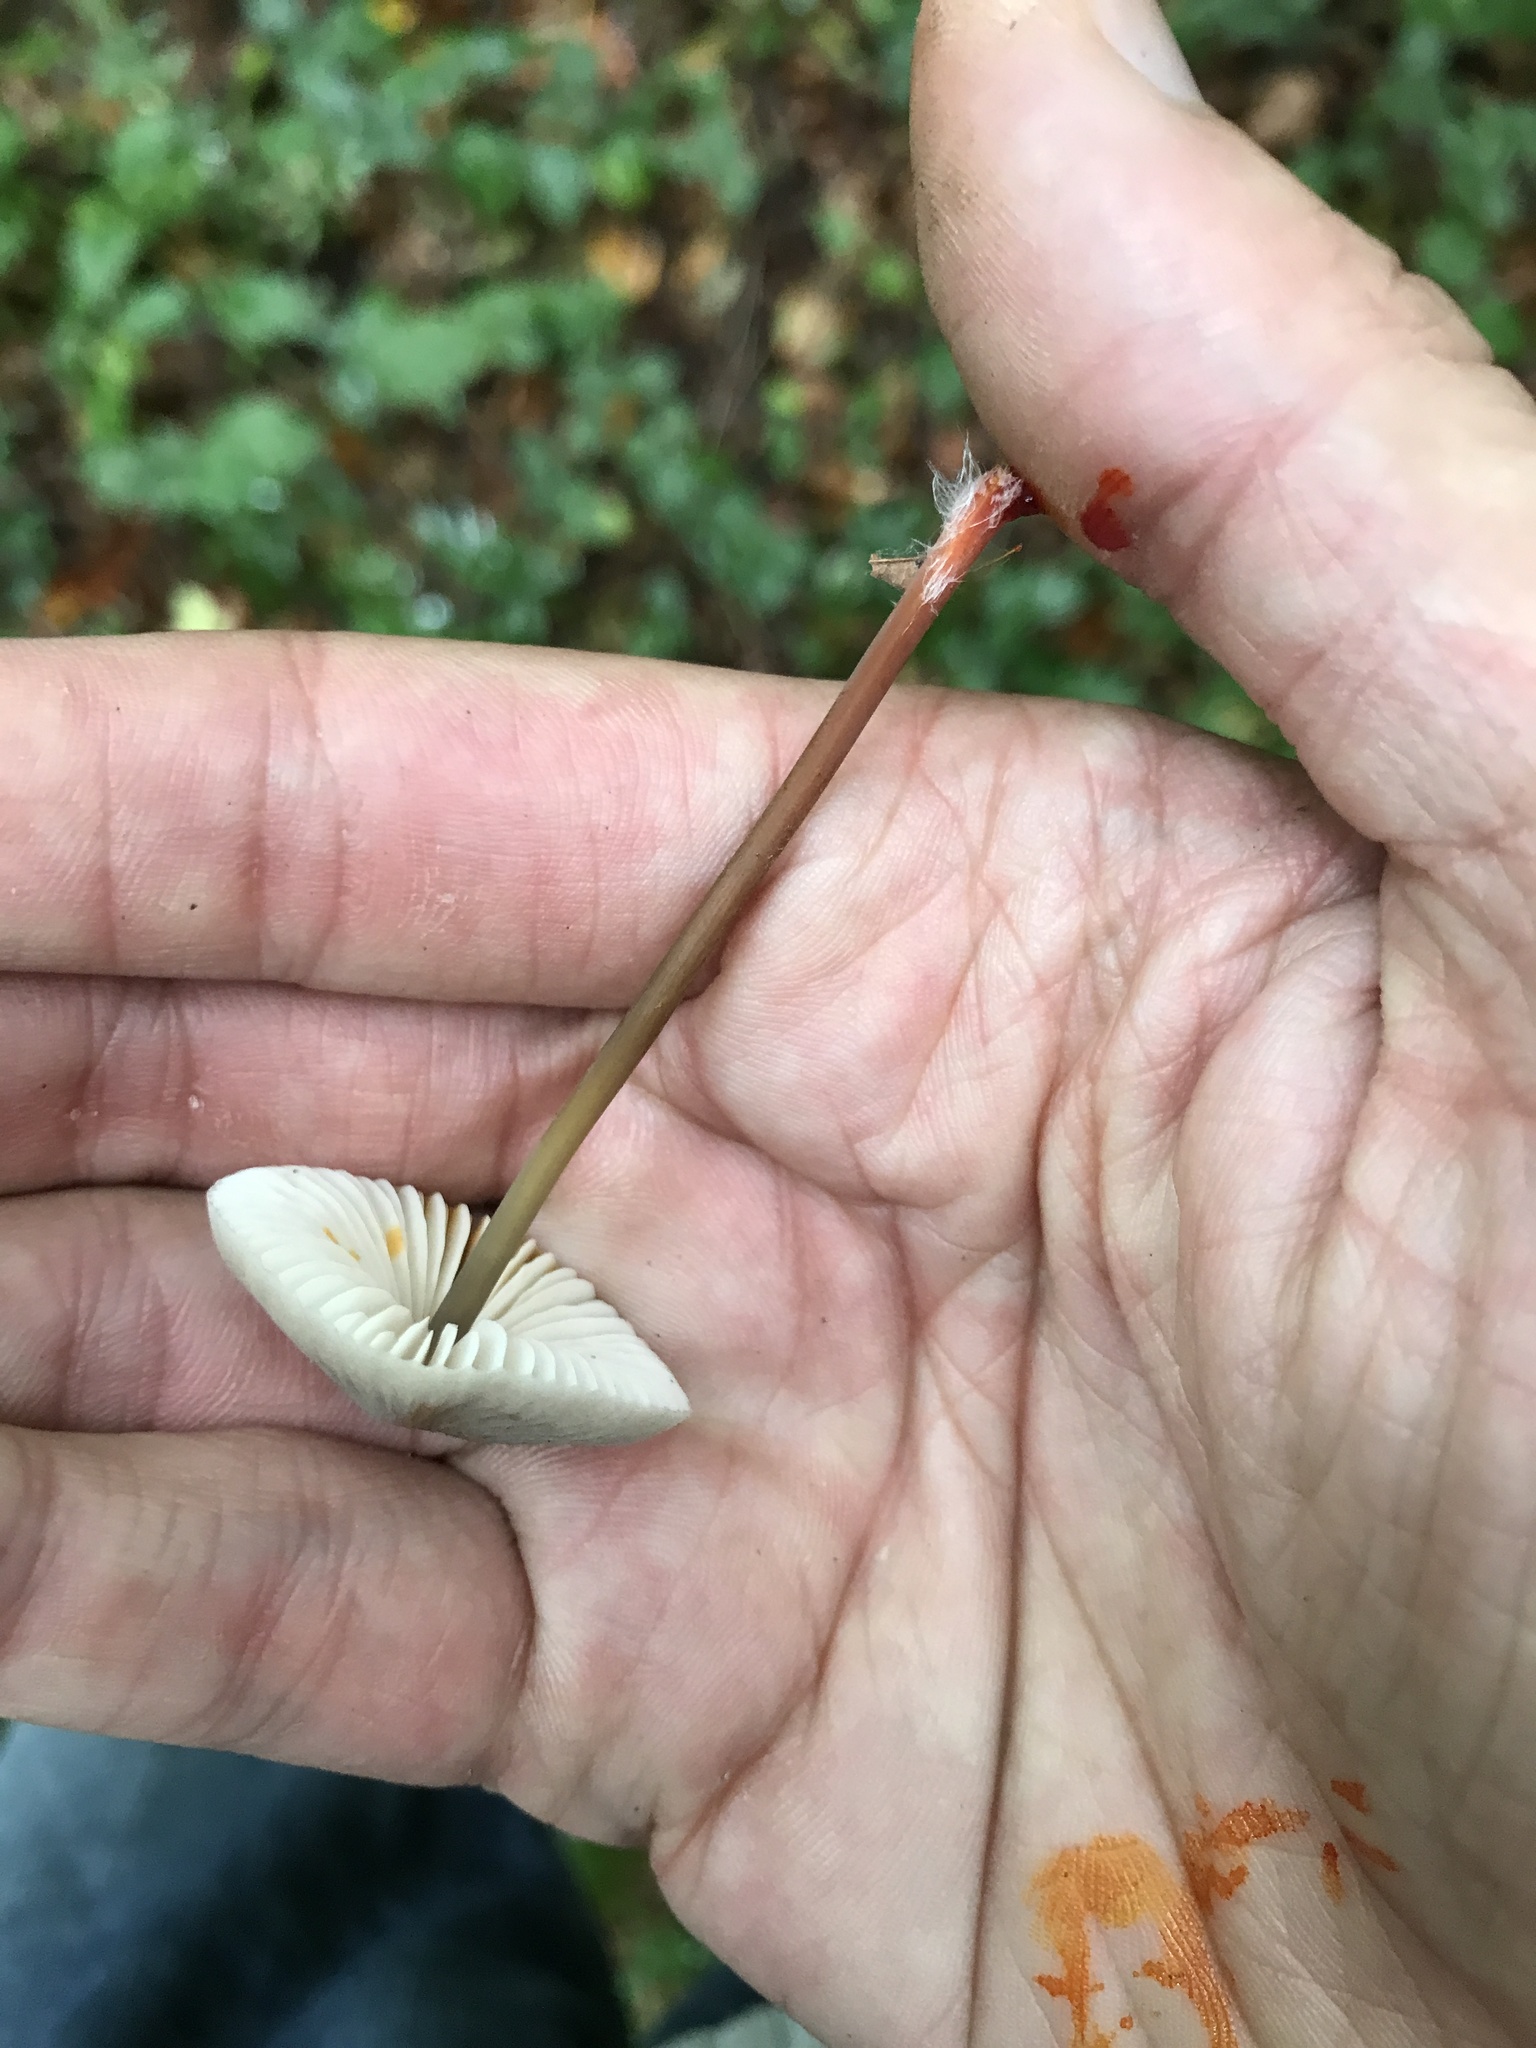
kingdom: Fungi
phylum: Basidiomycota
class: Agaricomycetes
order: Agaricales
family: Mycenaceae
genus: Mycena
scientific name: Mycena crocata
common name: Saffrondrop bonnet
